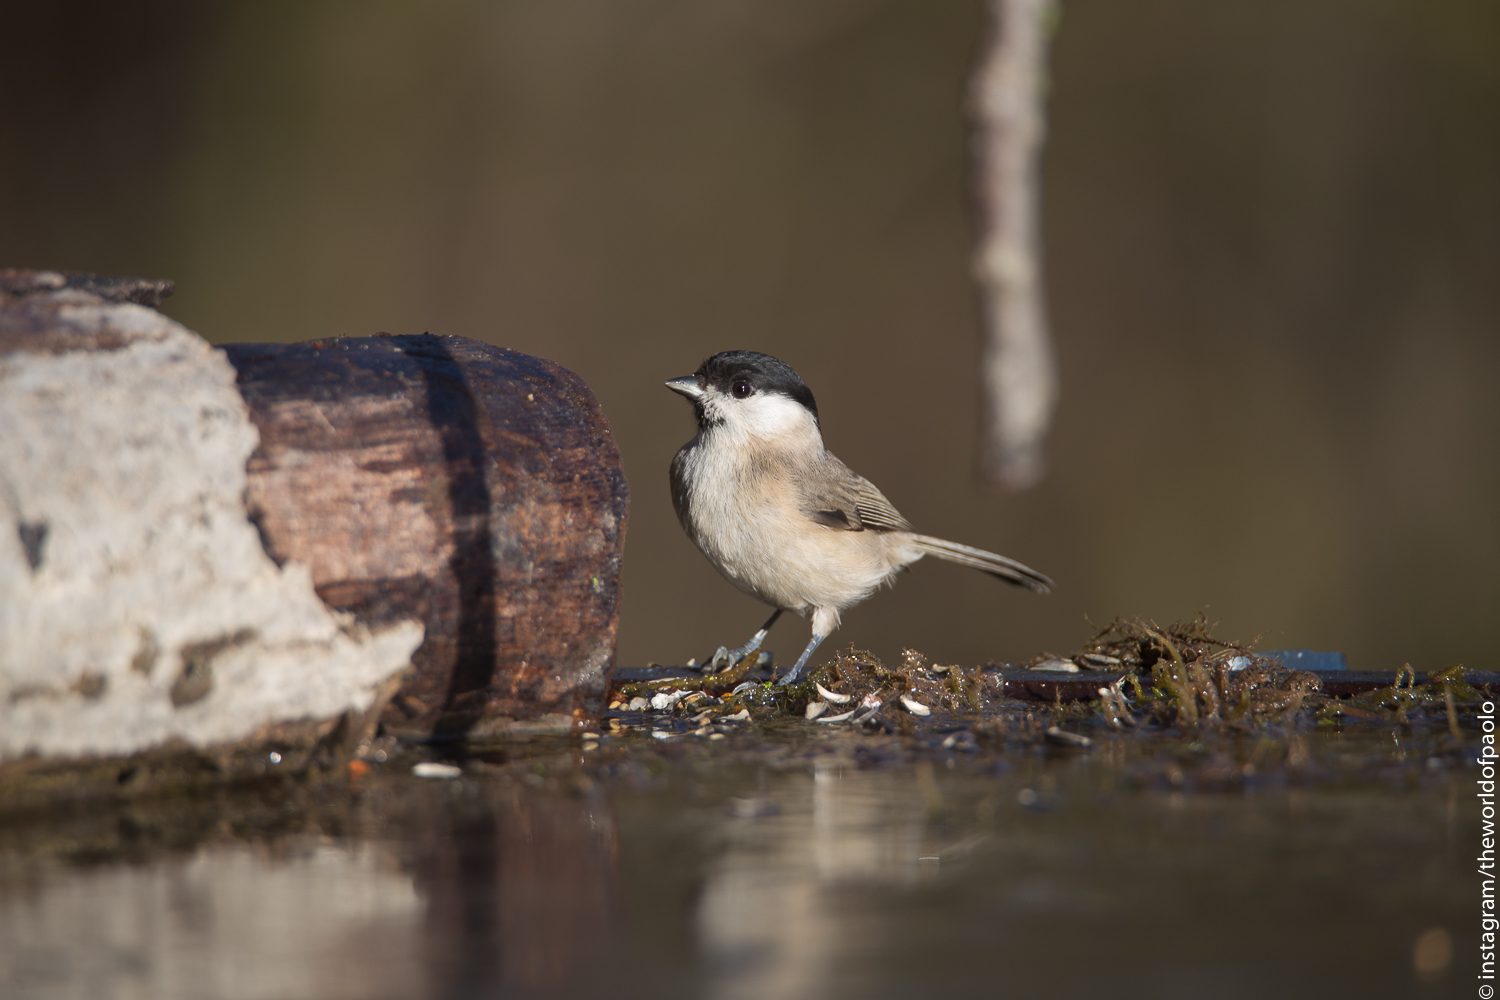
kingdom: Animalia
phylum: Chordata
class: Aves
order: Passeriformes
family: Paridae
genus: Poecile
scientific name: Poecile palustris
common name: Marsh tit
